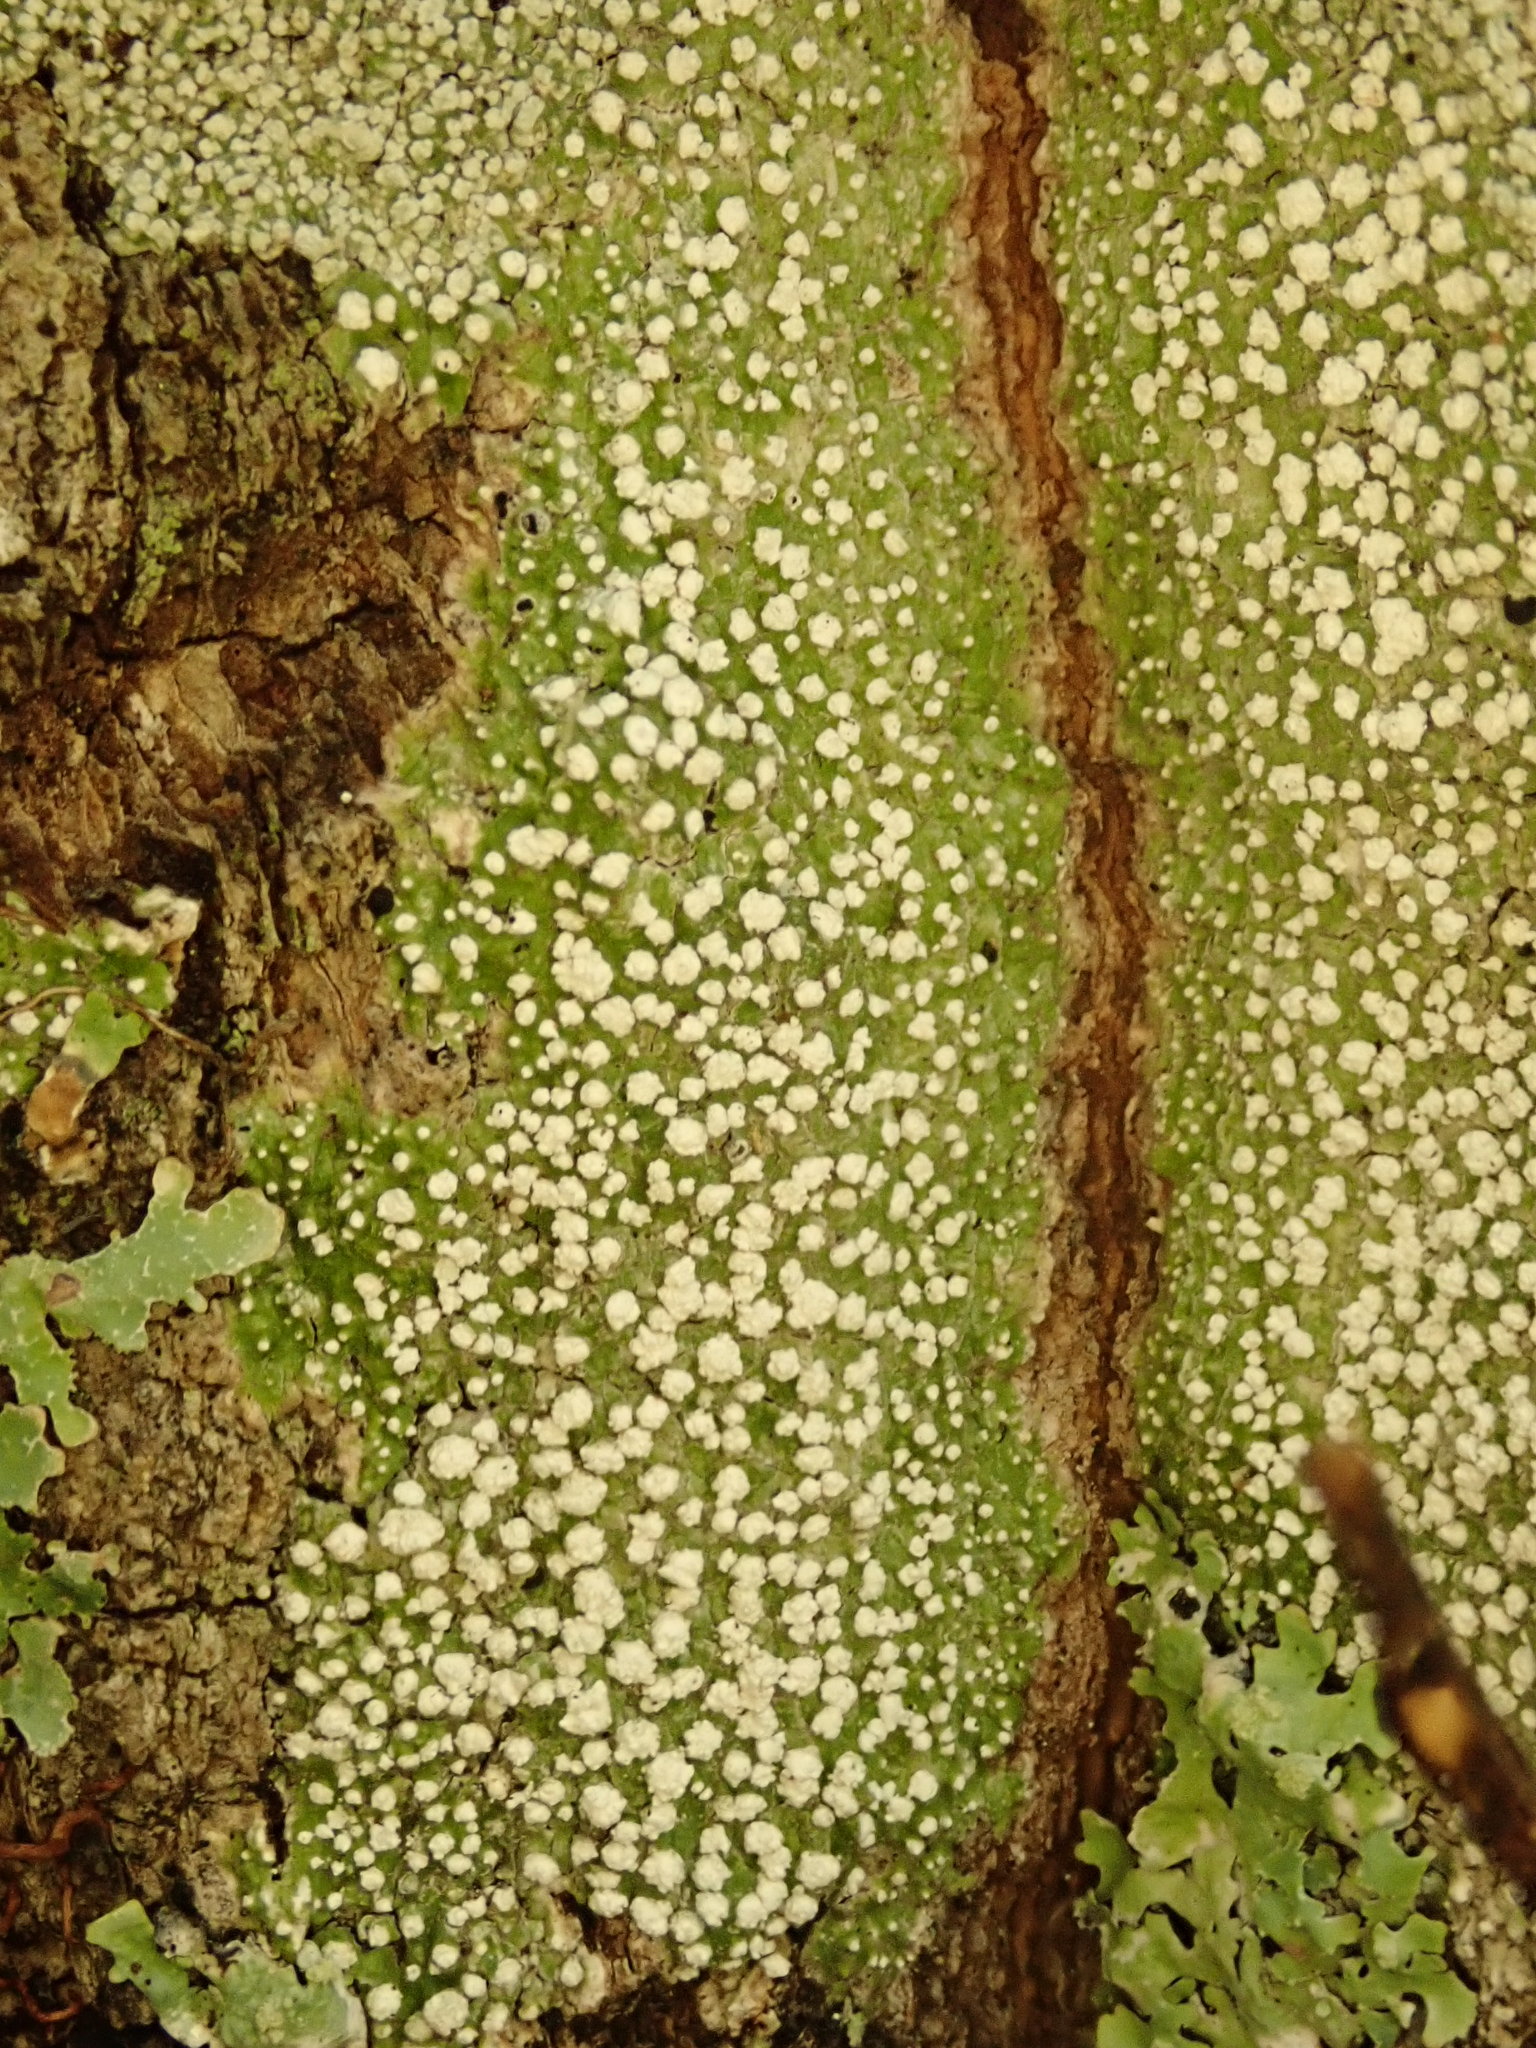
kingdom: Fungi
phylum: Ascomycota
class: Lecanoromycetes
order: Pertusariales
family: Pertusariaceae
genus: Lepra
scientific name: Lepra amara
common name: Bitter wart lichen
